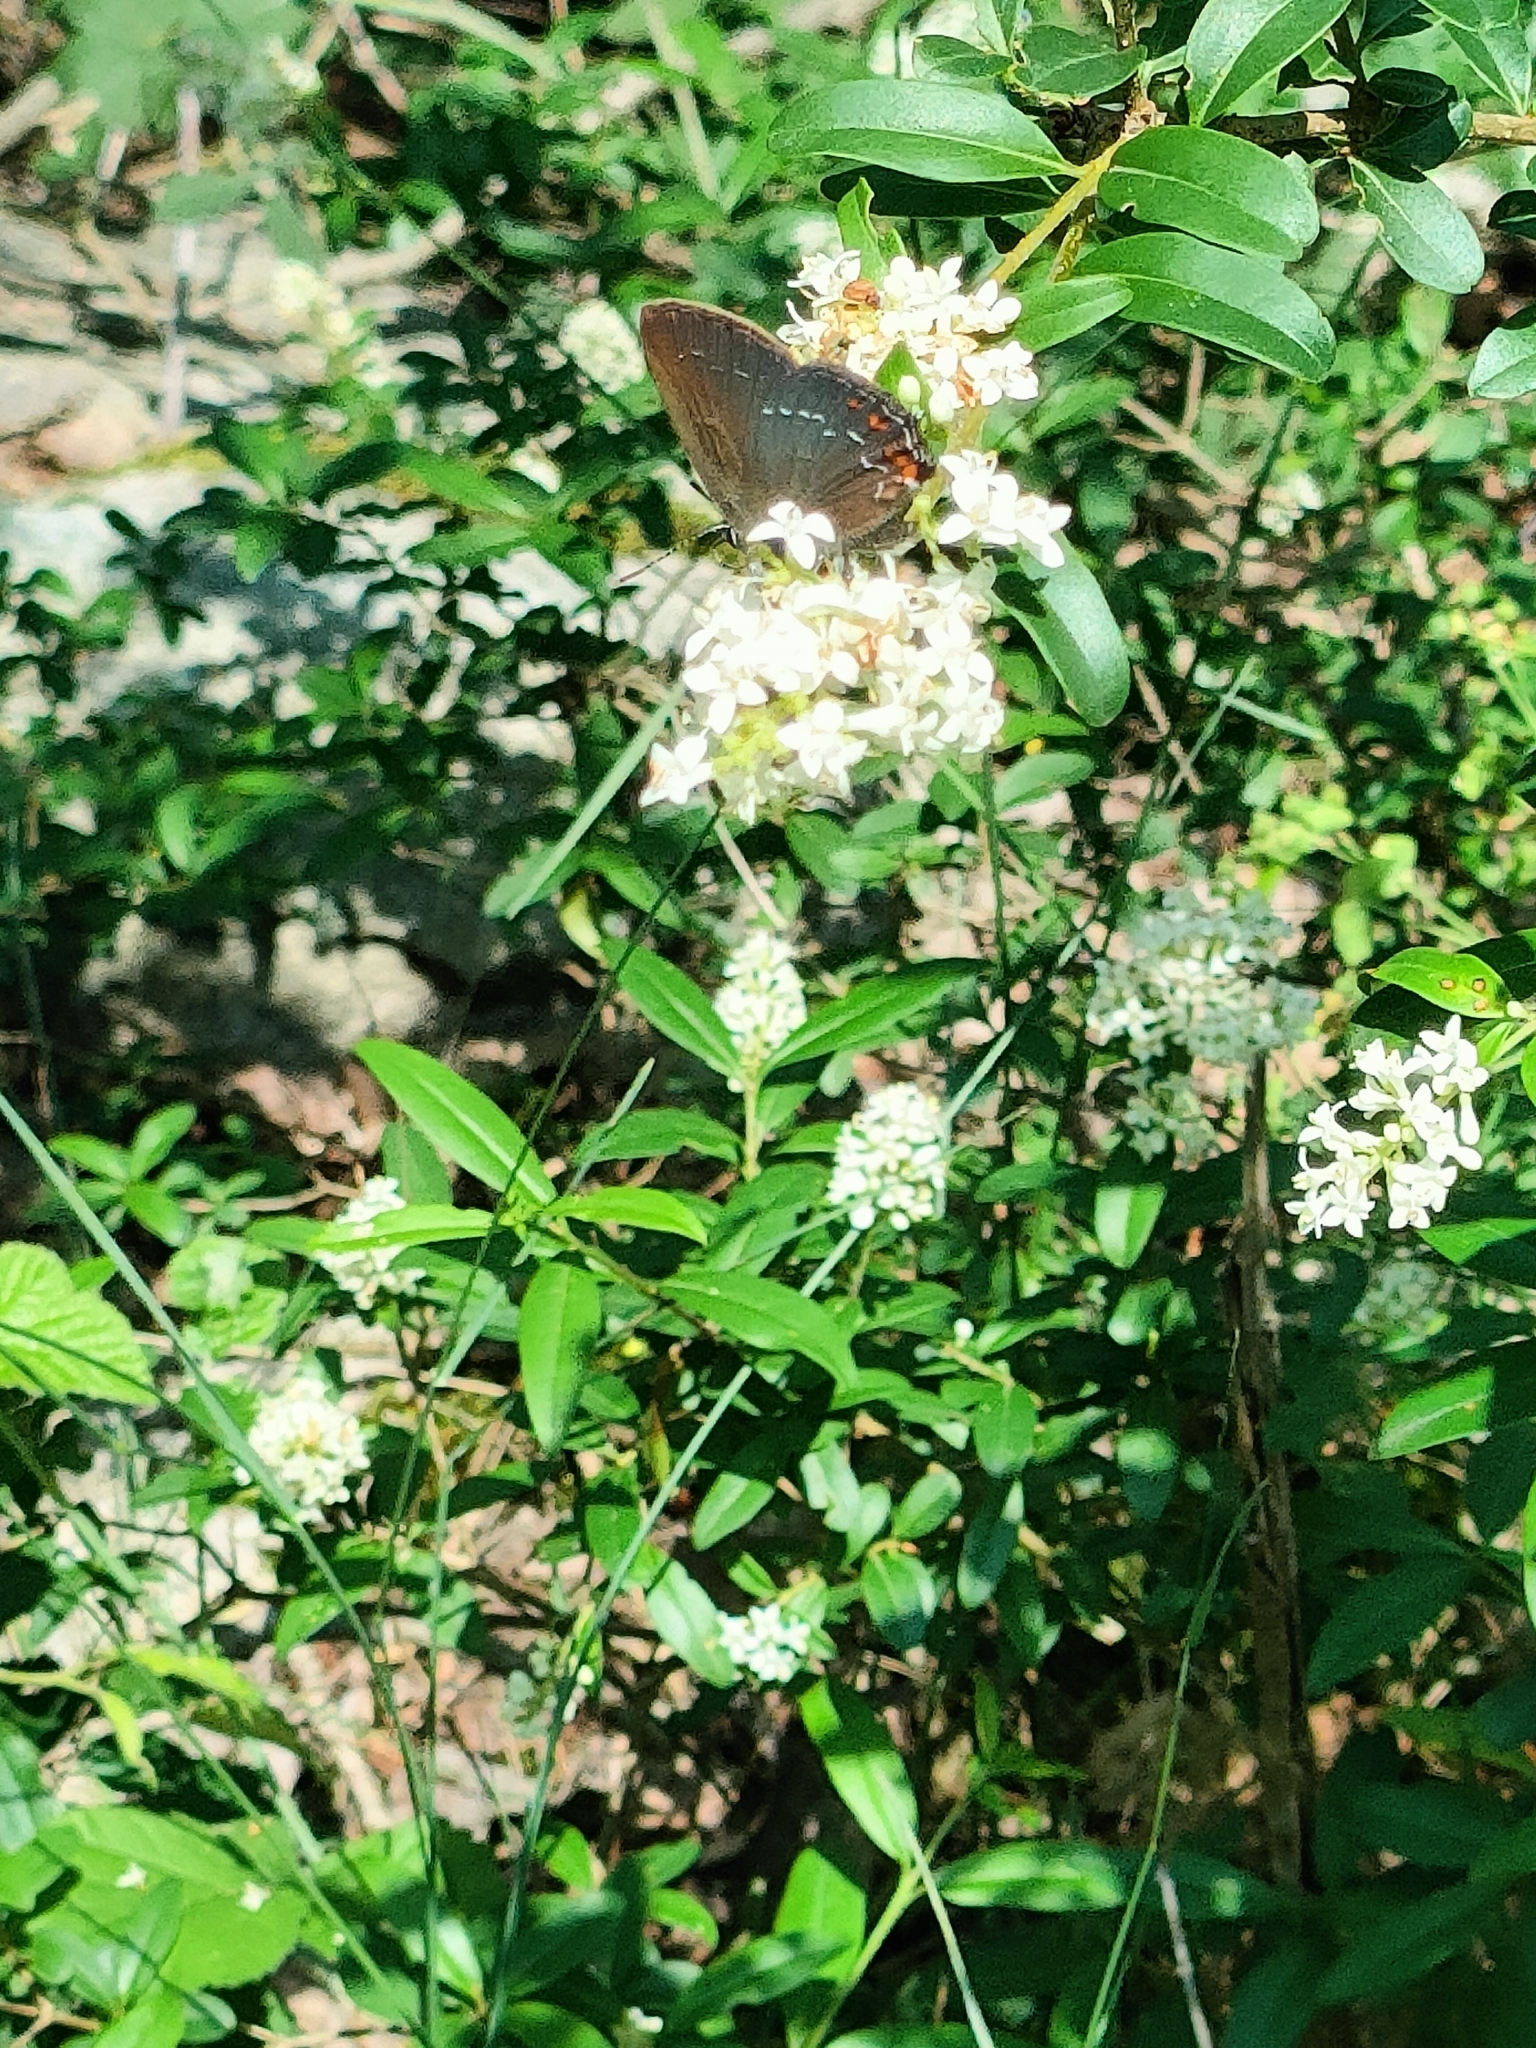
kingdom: Animalia
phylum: Arthropoda
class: Insecta
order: Lepidoptera
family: Lycaenidae
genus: Nordmannia
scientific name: Nordmannia ilicis
